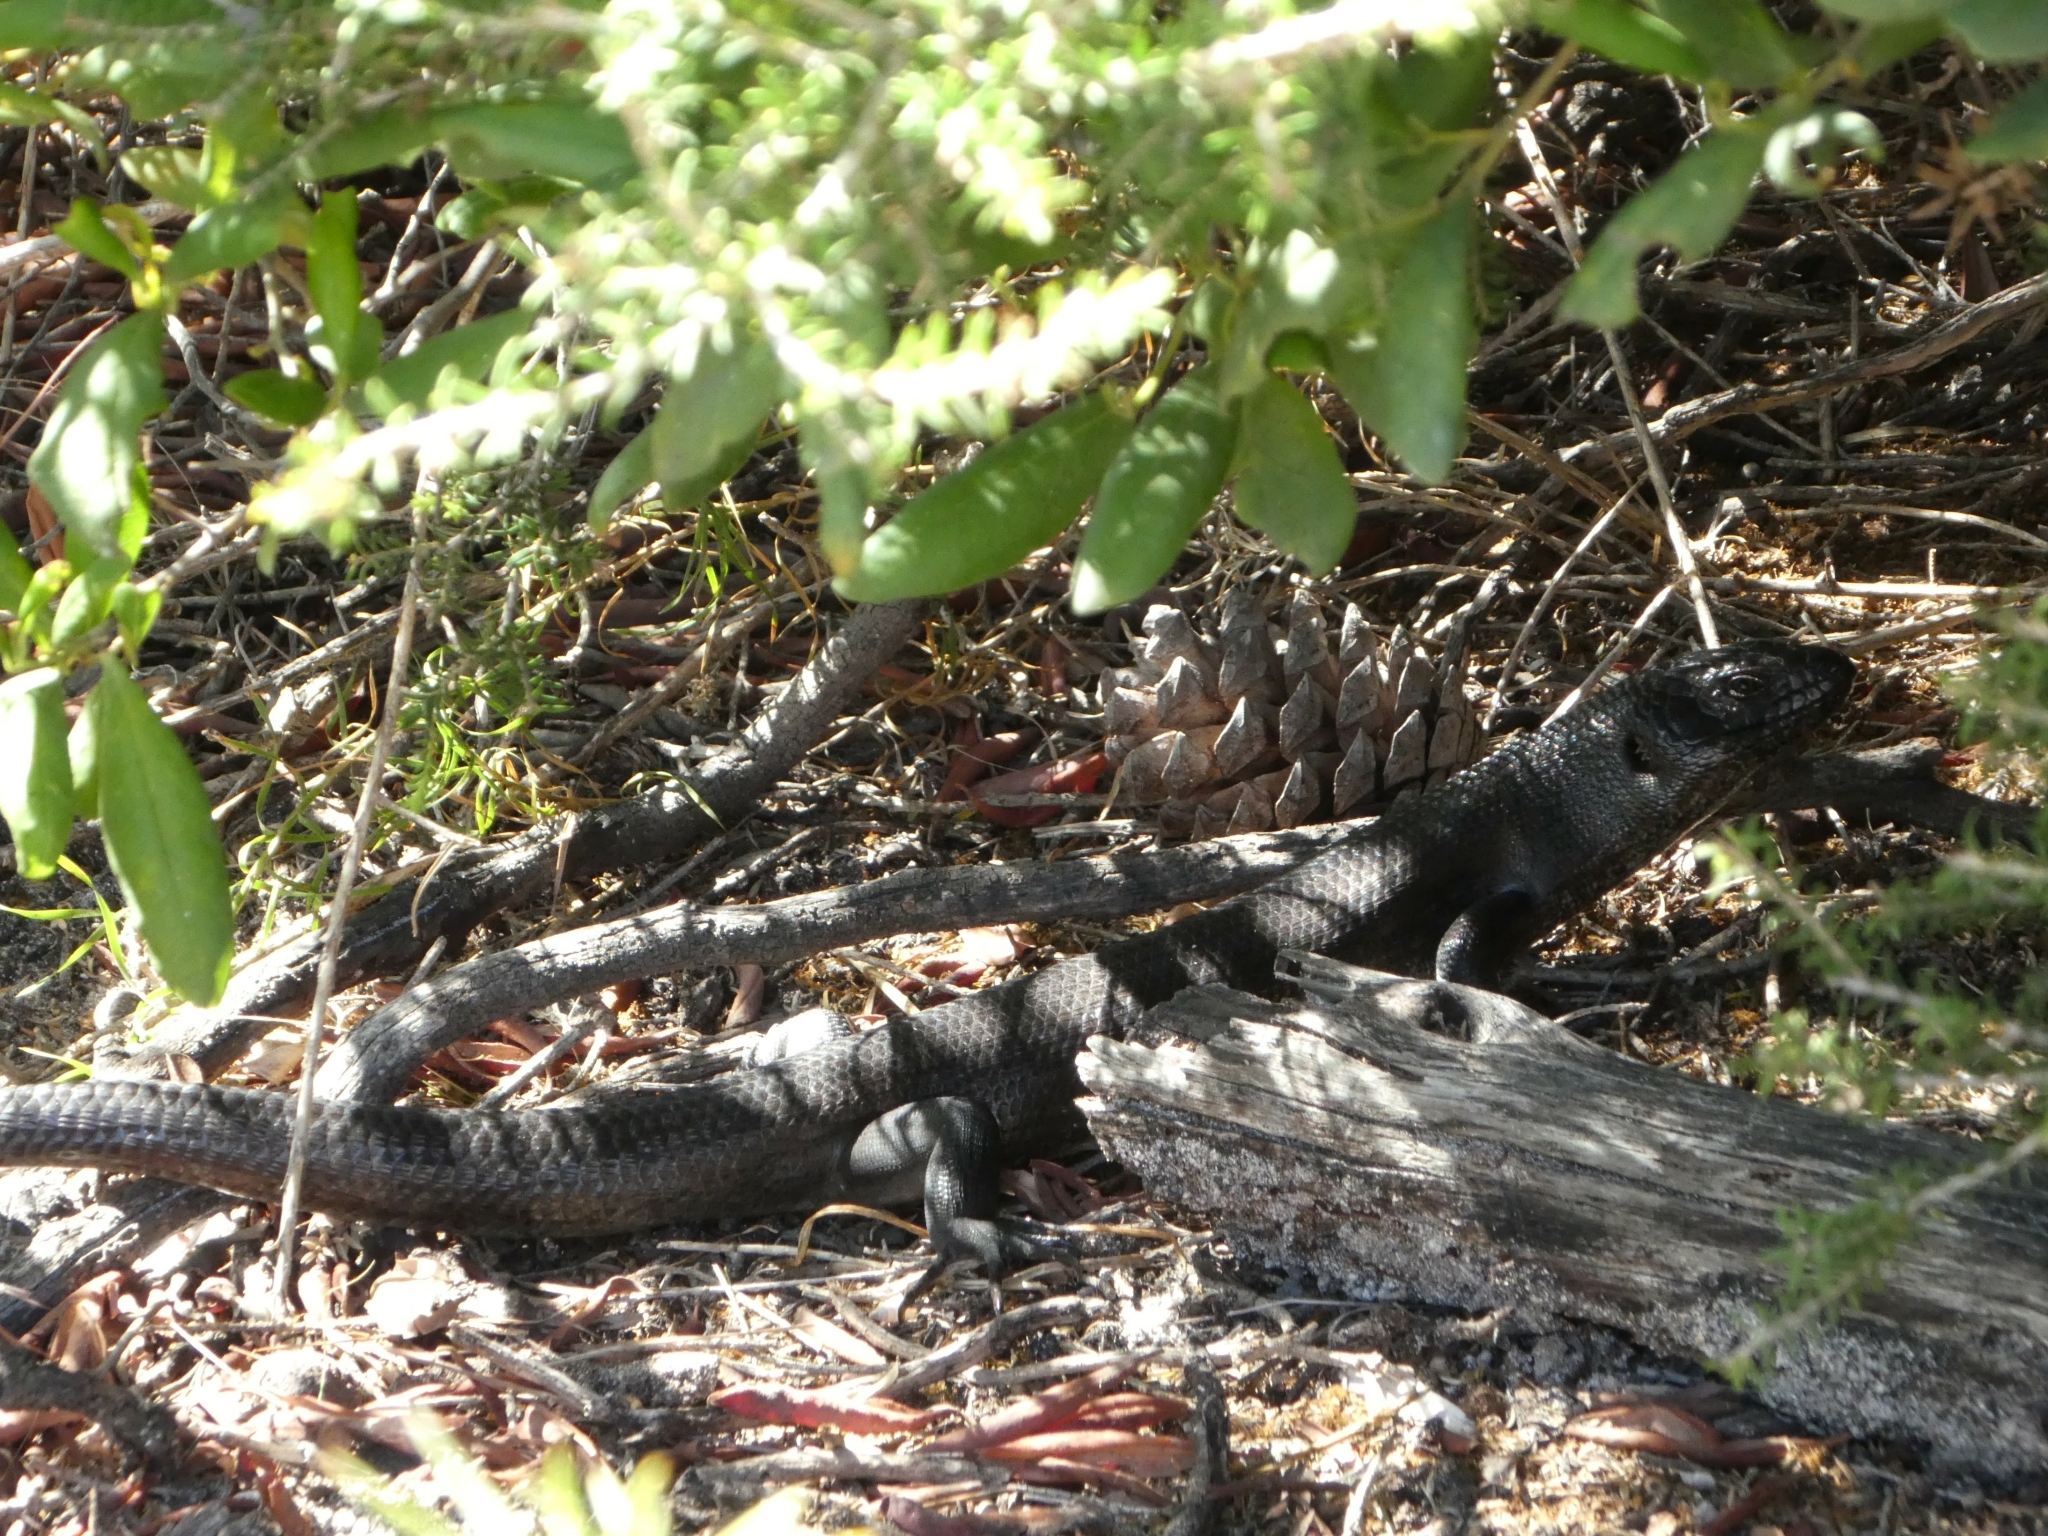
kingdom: Animalia
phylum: Chordata
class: Squamata
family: Scincidae
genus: Egernia
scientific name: Egernia kingii
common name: King's skink
